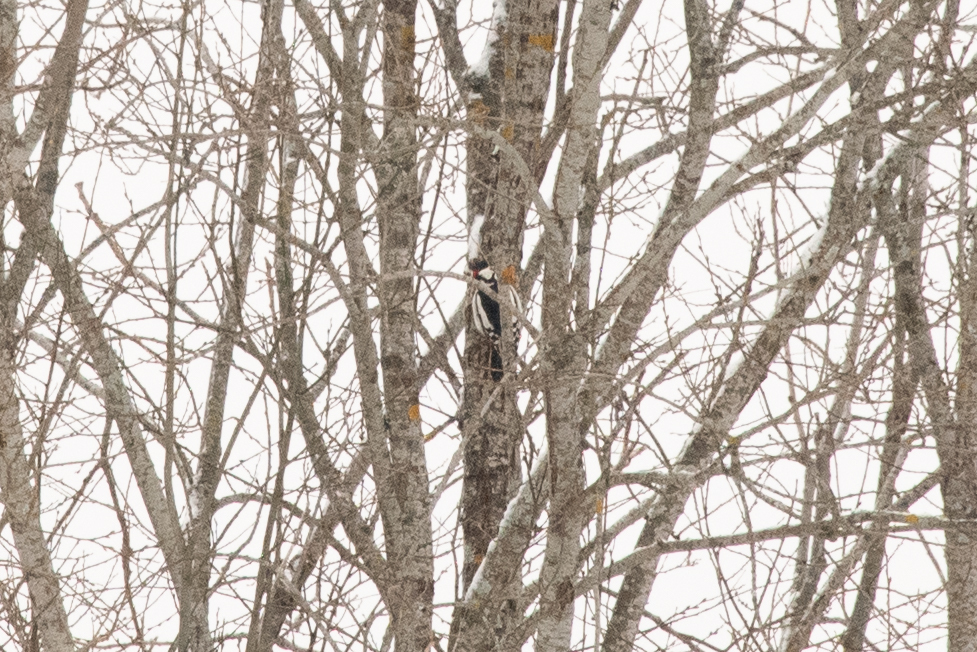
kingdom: Animalia
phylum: Chordata
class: Aves
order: Piciformes
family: Picidae
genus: Dendrocopos
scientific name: Dendrocopos major
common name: Great spotted woodpecker
